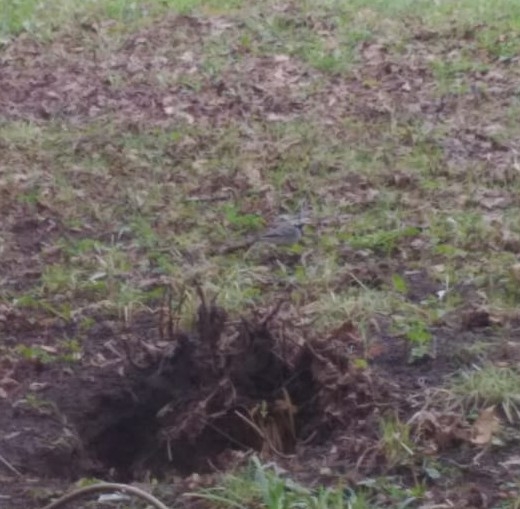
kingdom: Animalia
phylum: Chordata
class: Aves
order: Passeriformes
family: Motacillidae
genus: Motacilla
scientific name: Motacilla alba
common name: White wagtail
